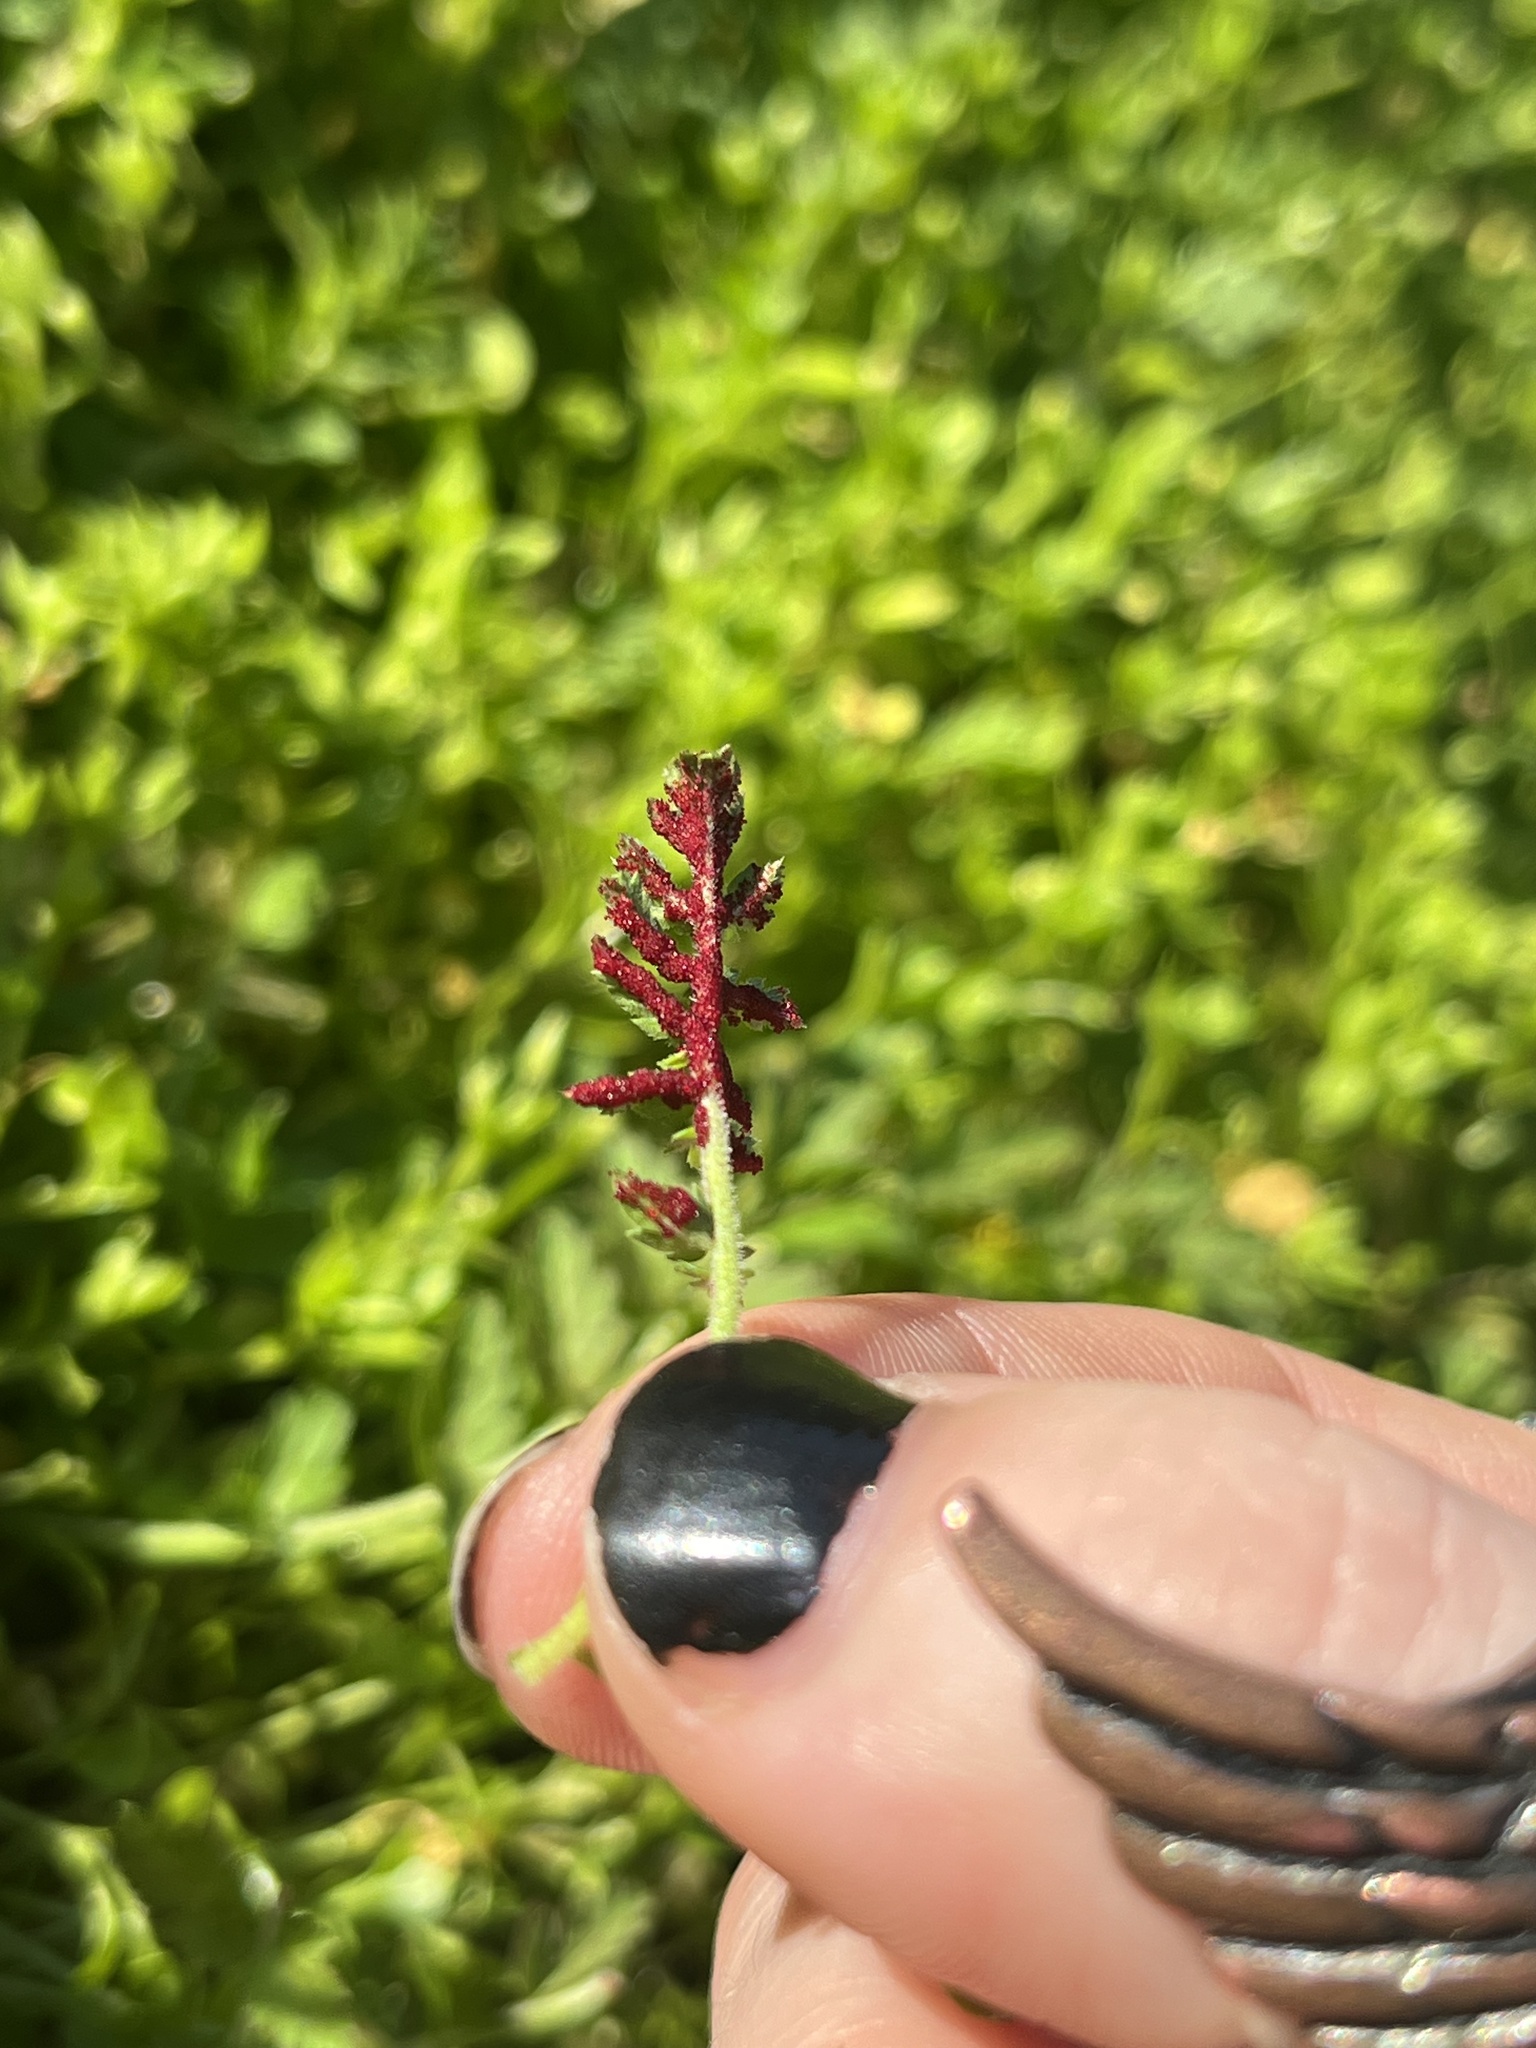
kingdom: Fungi
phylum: Chytridiomycota
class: Chytridiomycetes
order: Chytridiales
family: Synchytriaceae
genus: Synchytrium
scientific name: Synchytrium papillatum
